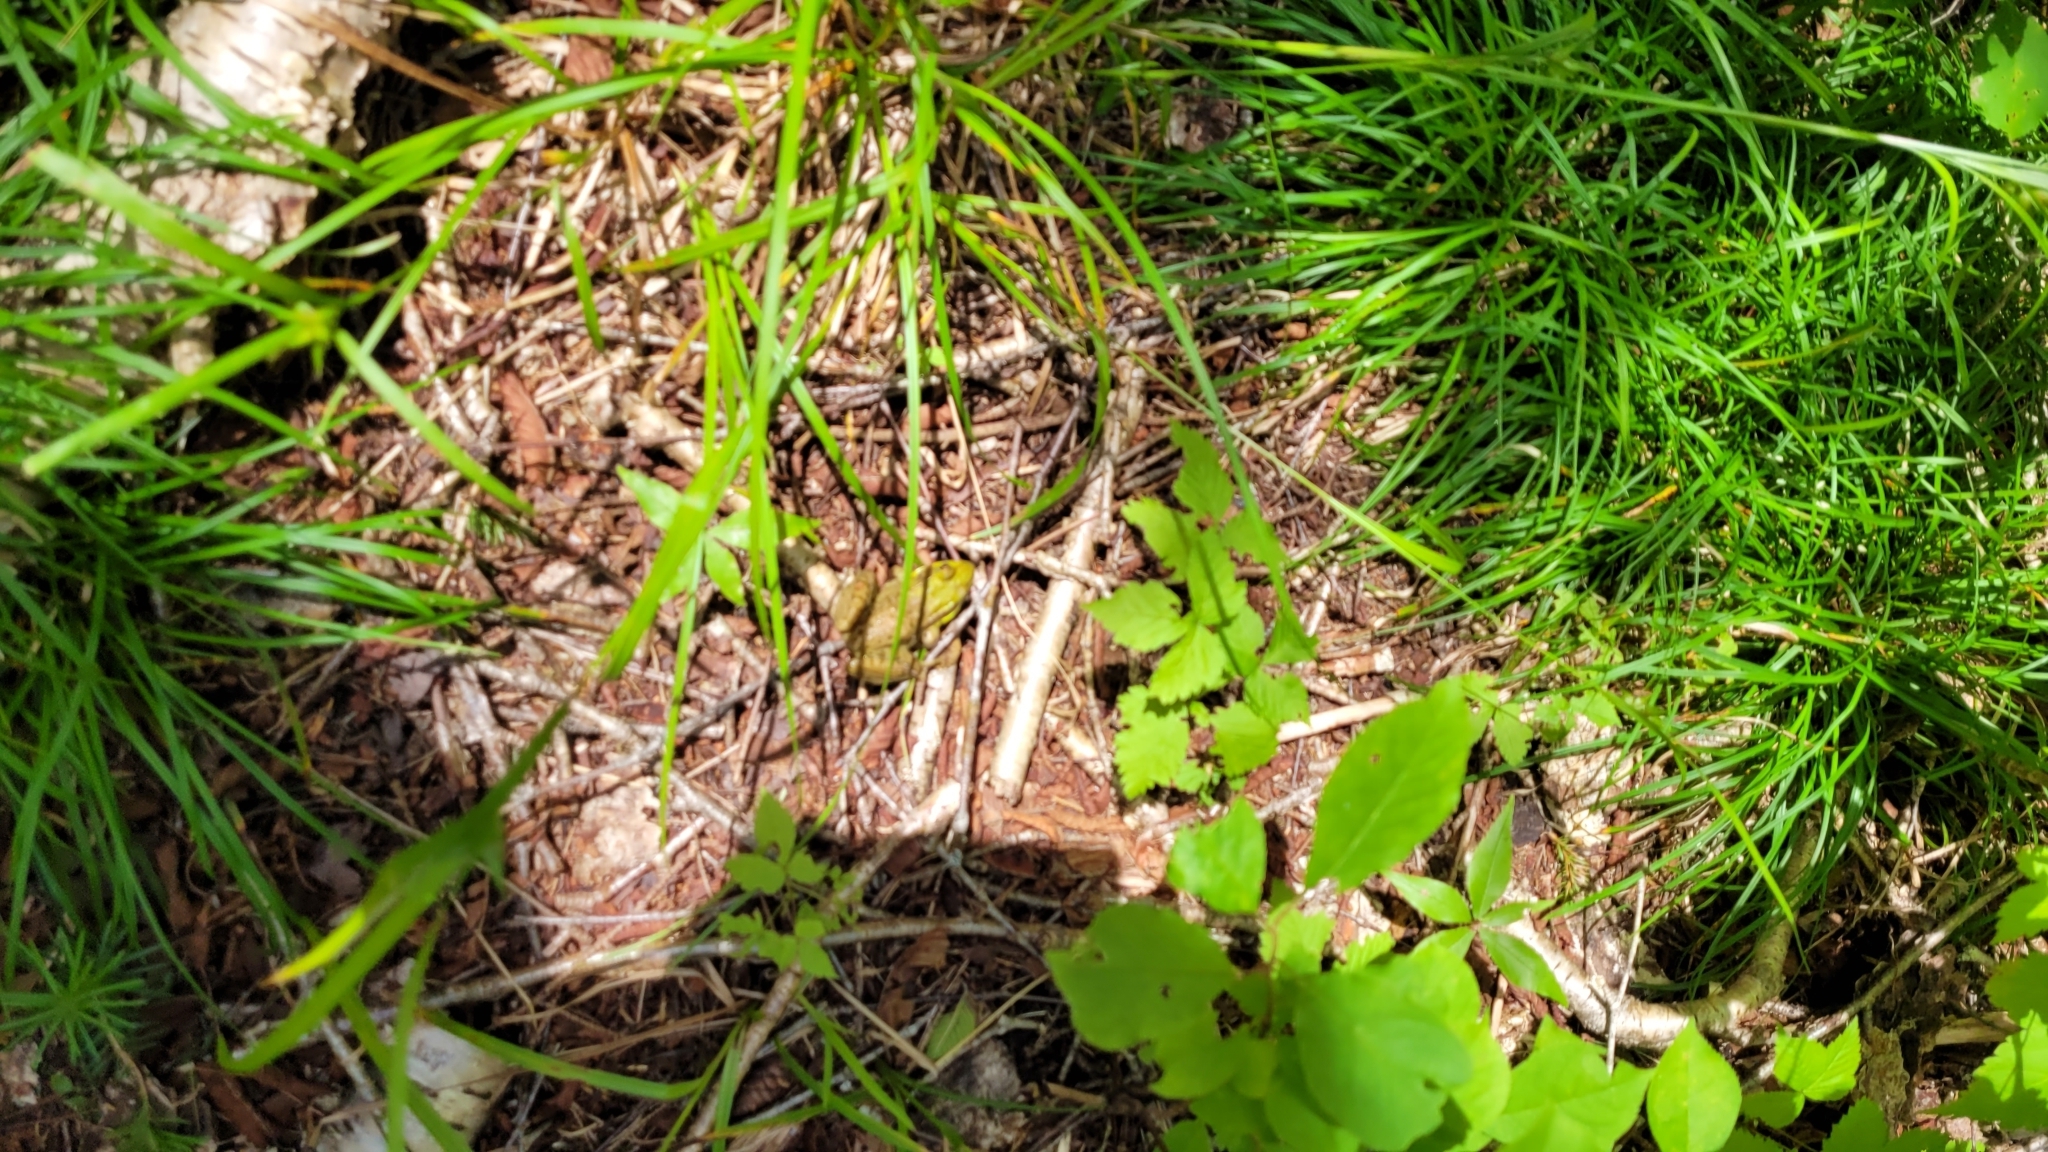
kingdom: Animalia
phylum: Chordata
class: Amphibia
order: Anura
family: Ranidae
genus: Lithobates
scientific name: Lithobates clamitans
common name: Green frog
